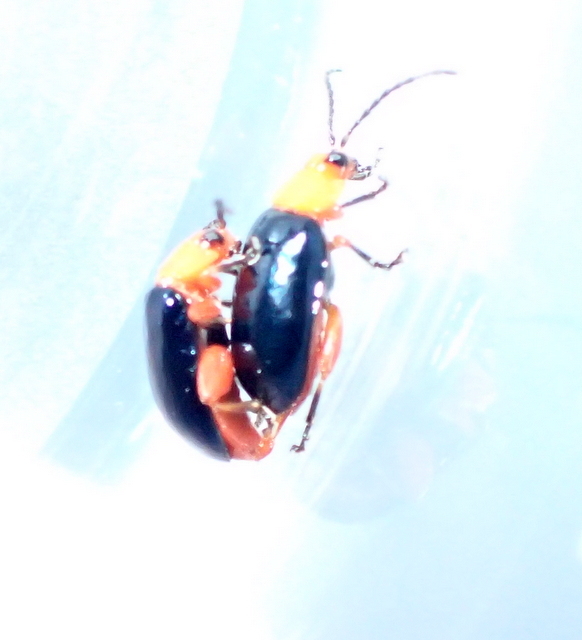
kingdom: Animalia
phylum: Arthropoda
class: Insecta
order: Coleoptera
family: Chrysomelidae
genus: Asphaera
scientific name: Asphaera lustrans
